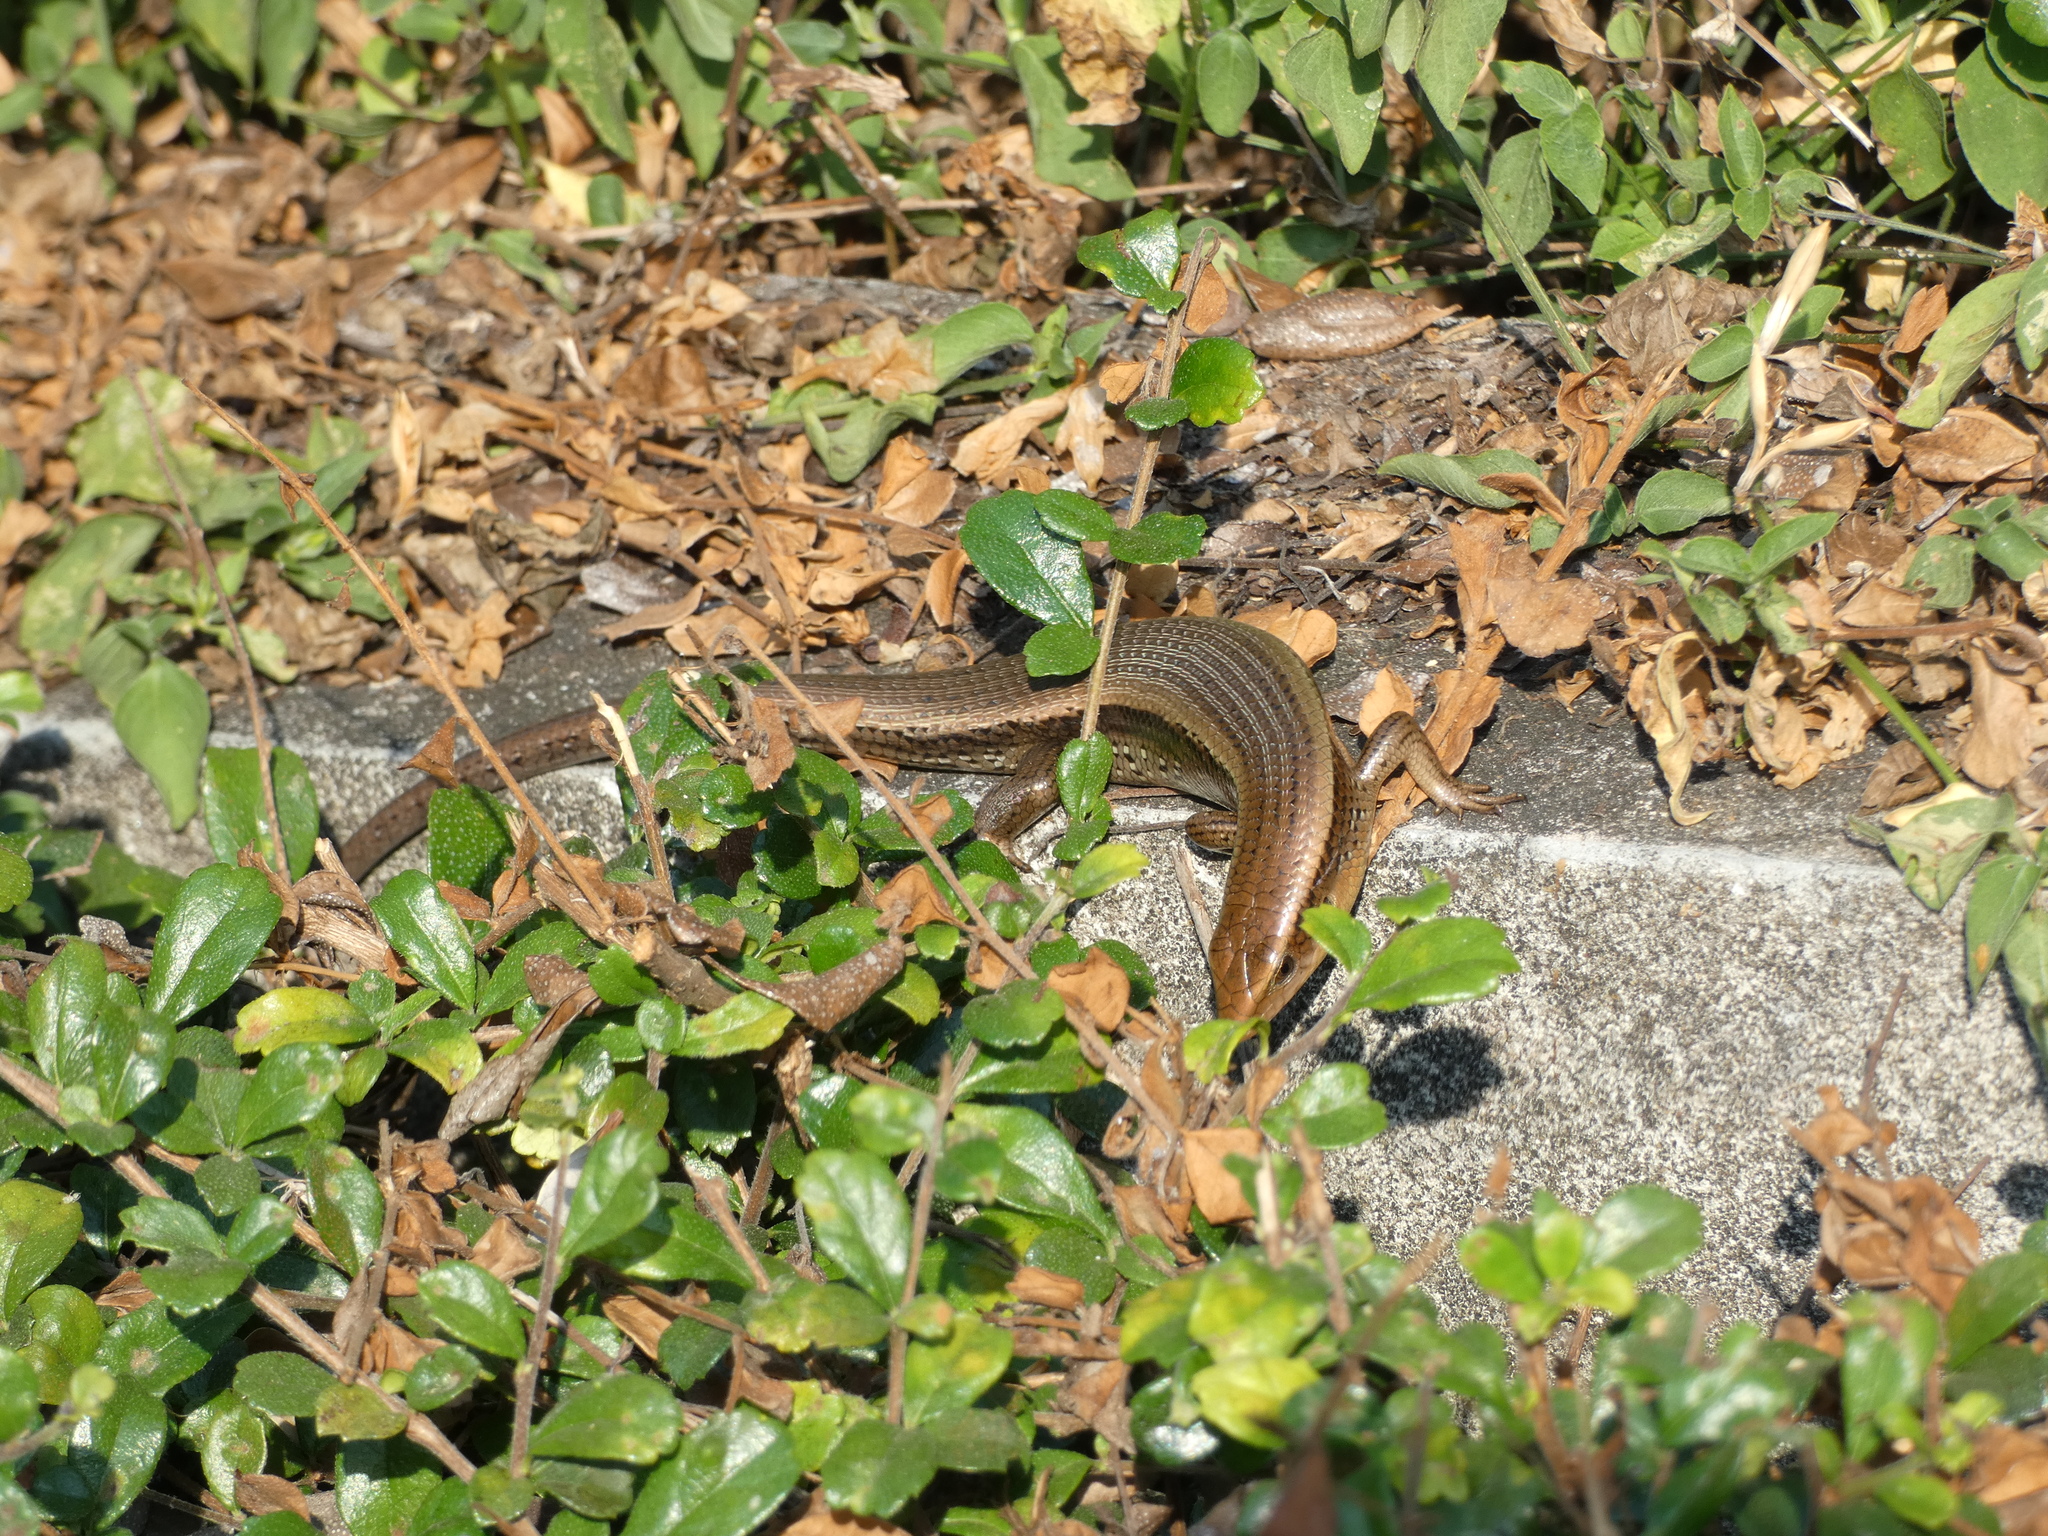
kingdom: Animalia
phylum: Chordata
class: Squamata
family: Scincidae
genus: Eutropis
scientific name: Eutropis multifasciata
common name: Common mabuya
